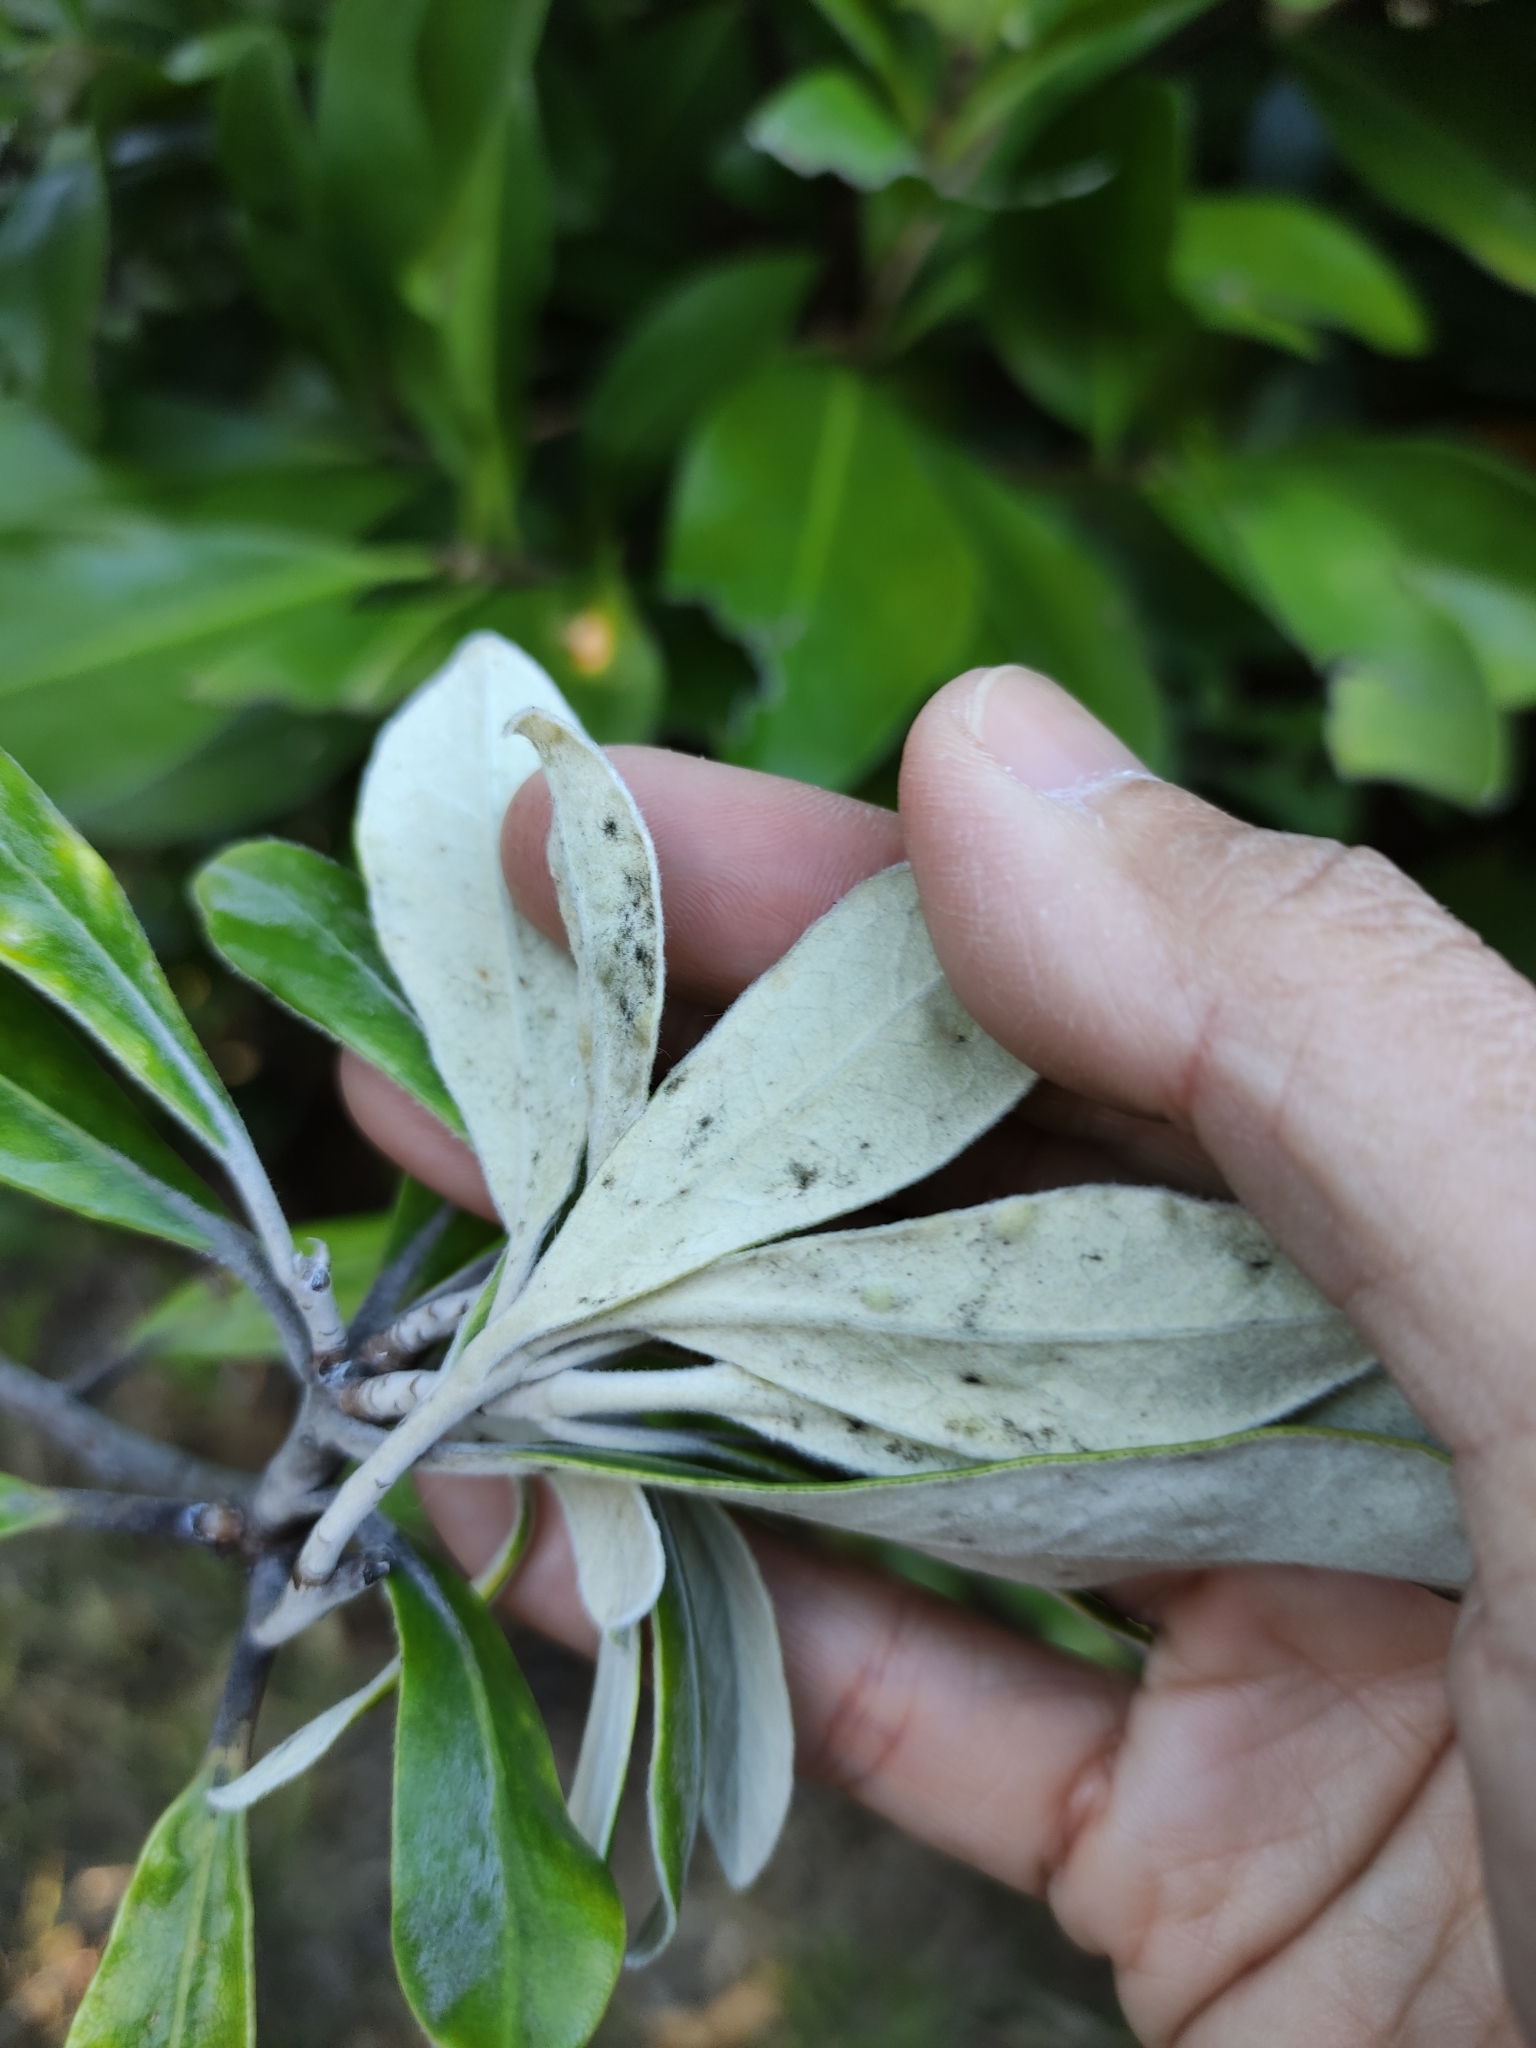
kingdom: Plantae
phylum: Tracheophyta
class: Magnoliopsida
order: Apiales
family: Pittosporaceae
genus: Pittosporum
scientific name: Pittosporum crassifolium
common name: Karo
